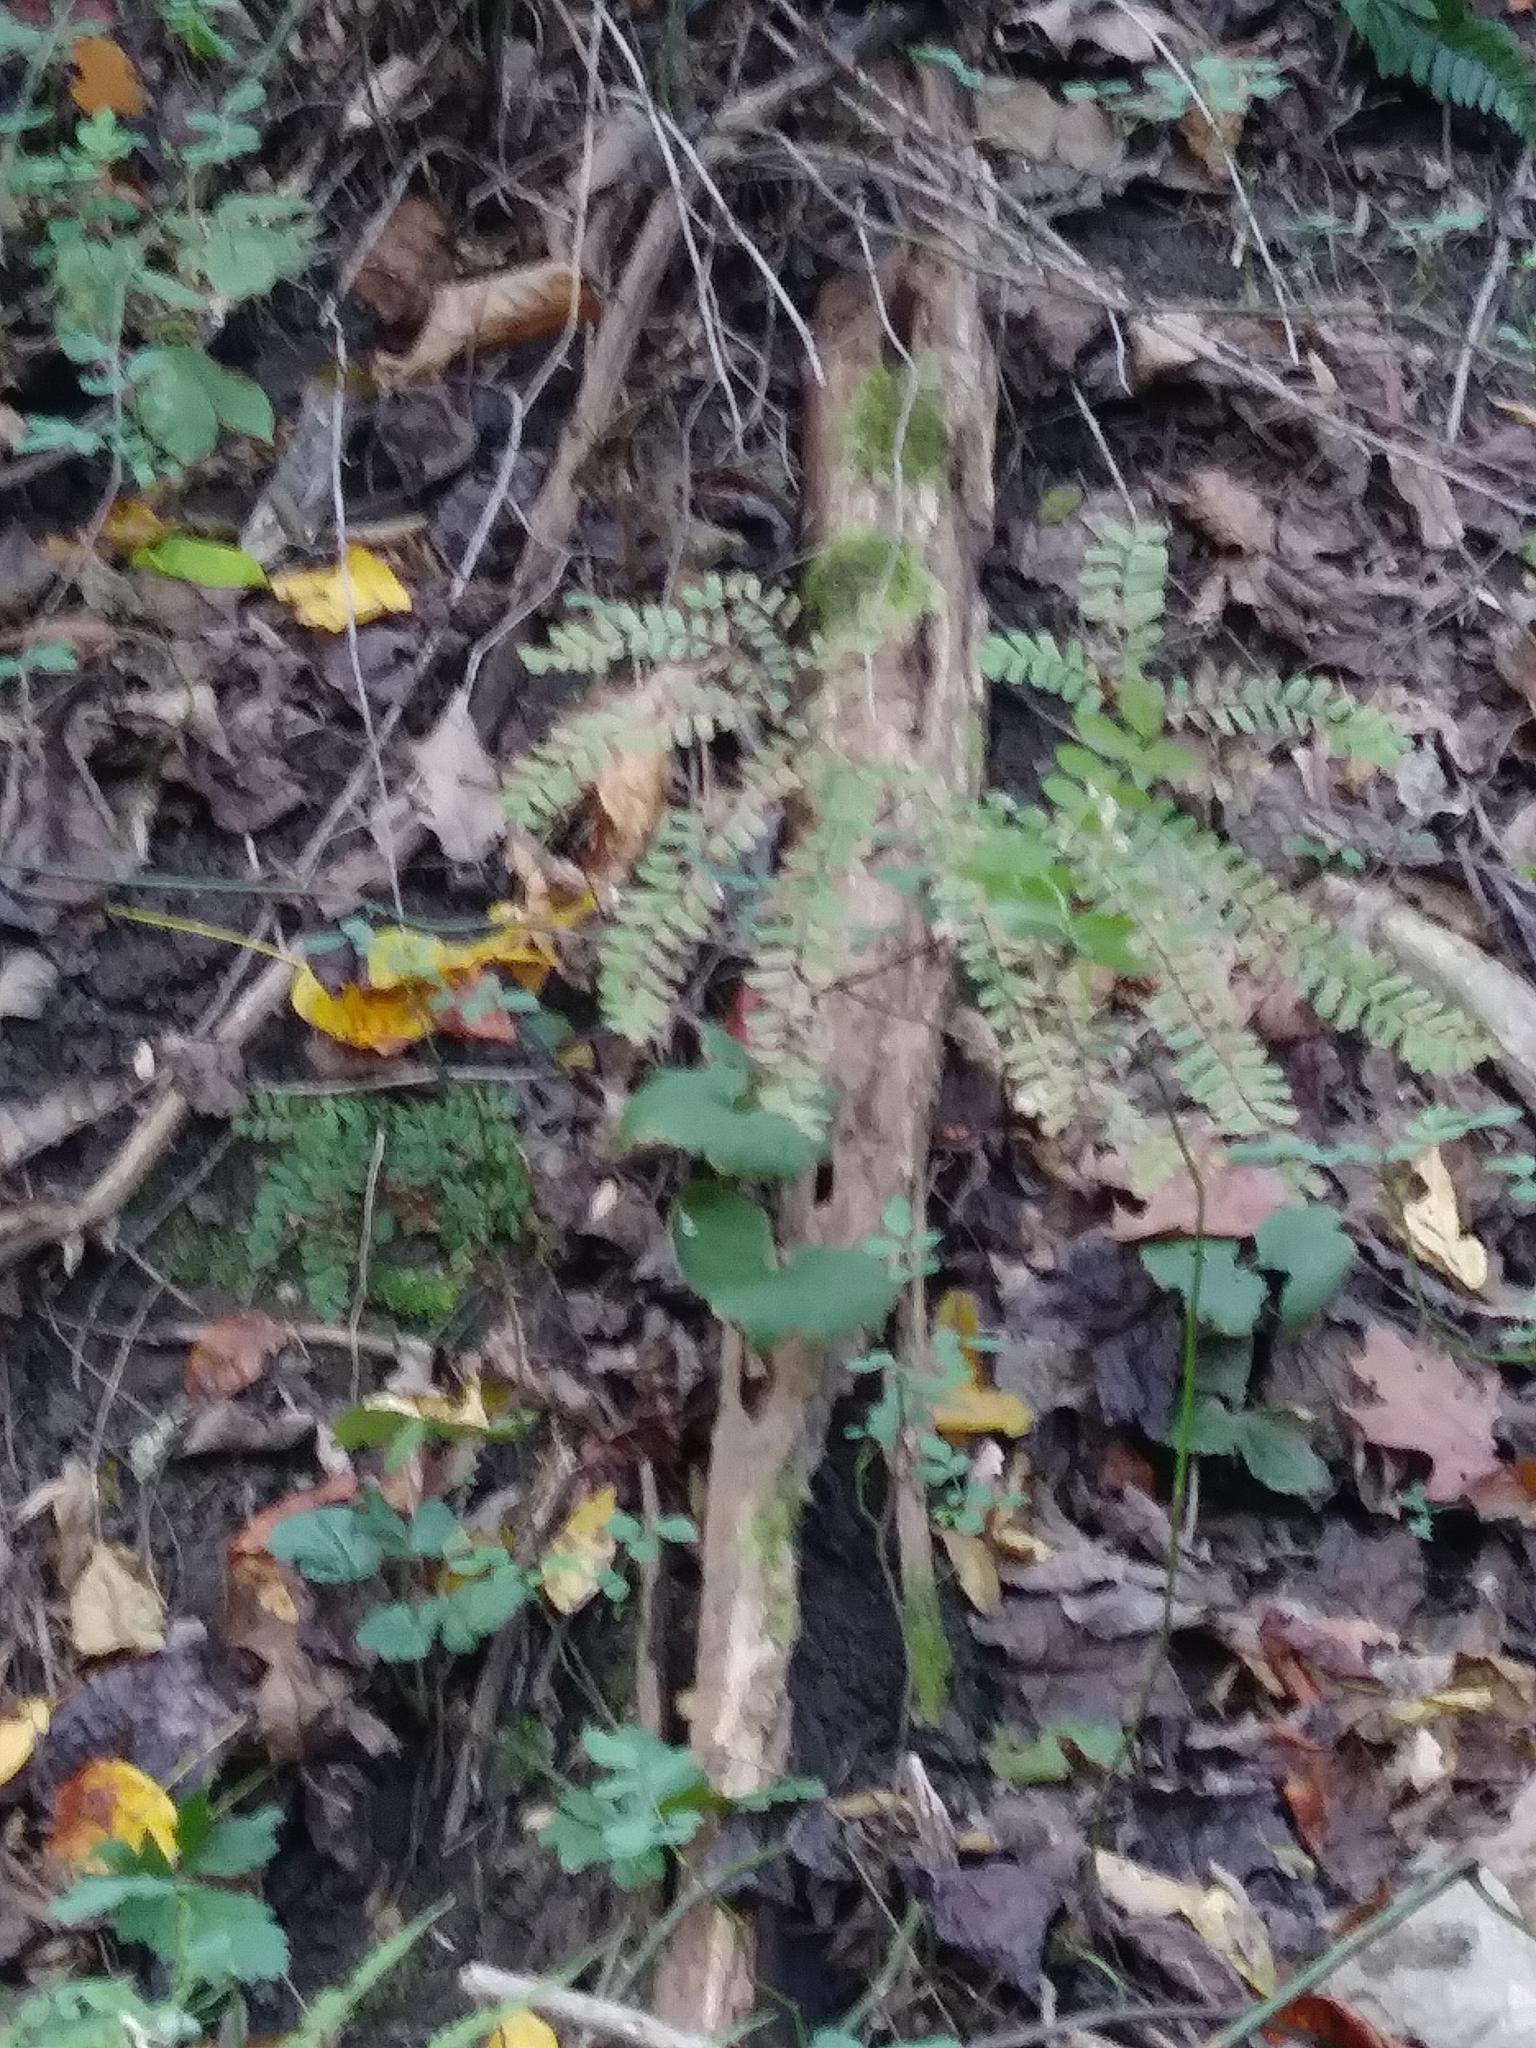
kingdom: Plantae
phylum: Tracheophyta
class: Polypodiopsida
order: Polypodiales
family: Pteridaceae
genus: Adiantum
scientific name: Adiantum pedatum
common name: Five-finger fern
